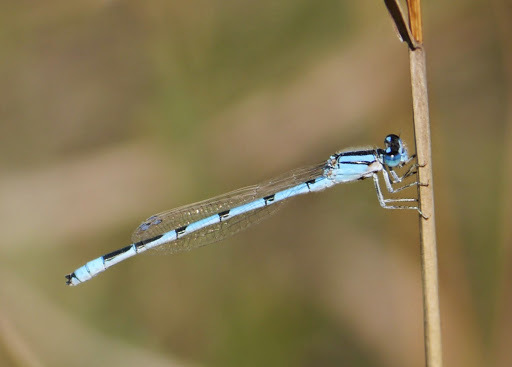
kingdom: Animalia
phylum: Arthropoda
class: Insecta
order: Odonata
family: Coenagrionidae
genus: Enallagma
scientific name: Enallagma civile
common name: Damselfly
